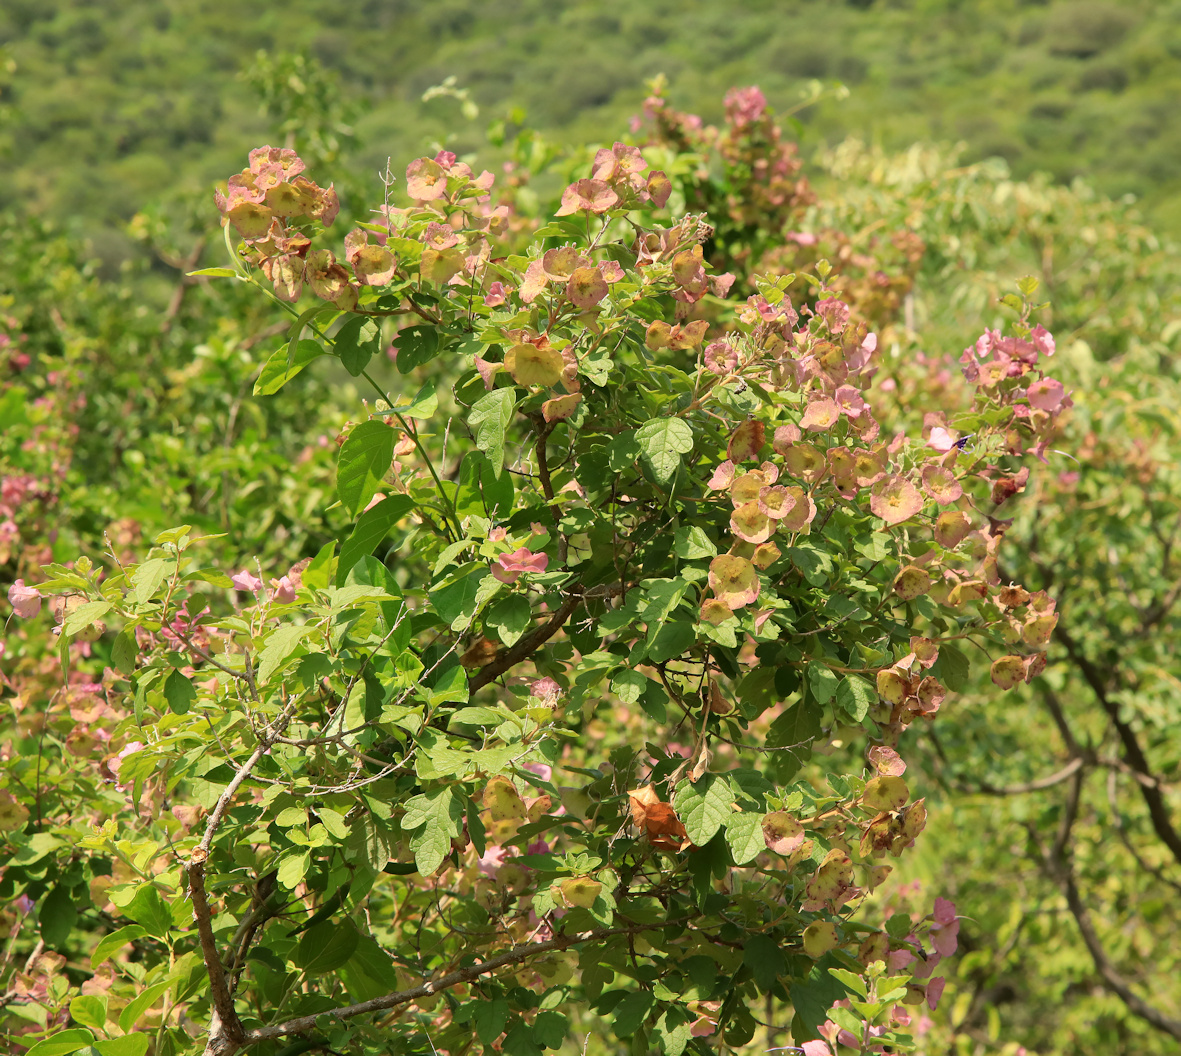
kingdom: Plantae
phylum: Tracheophyta
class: Magnoliopsida
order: Lamiales
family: Lamiaceae
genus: Karomia
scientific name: Karomia speciosa
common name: Southern chinese-hats
